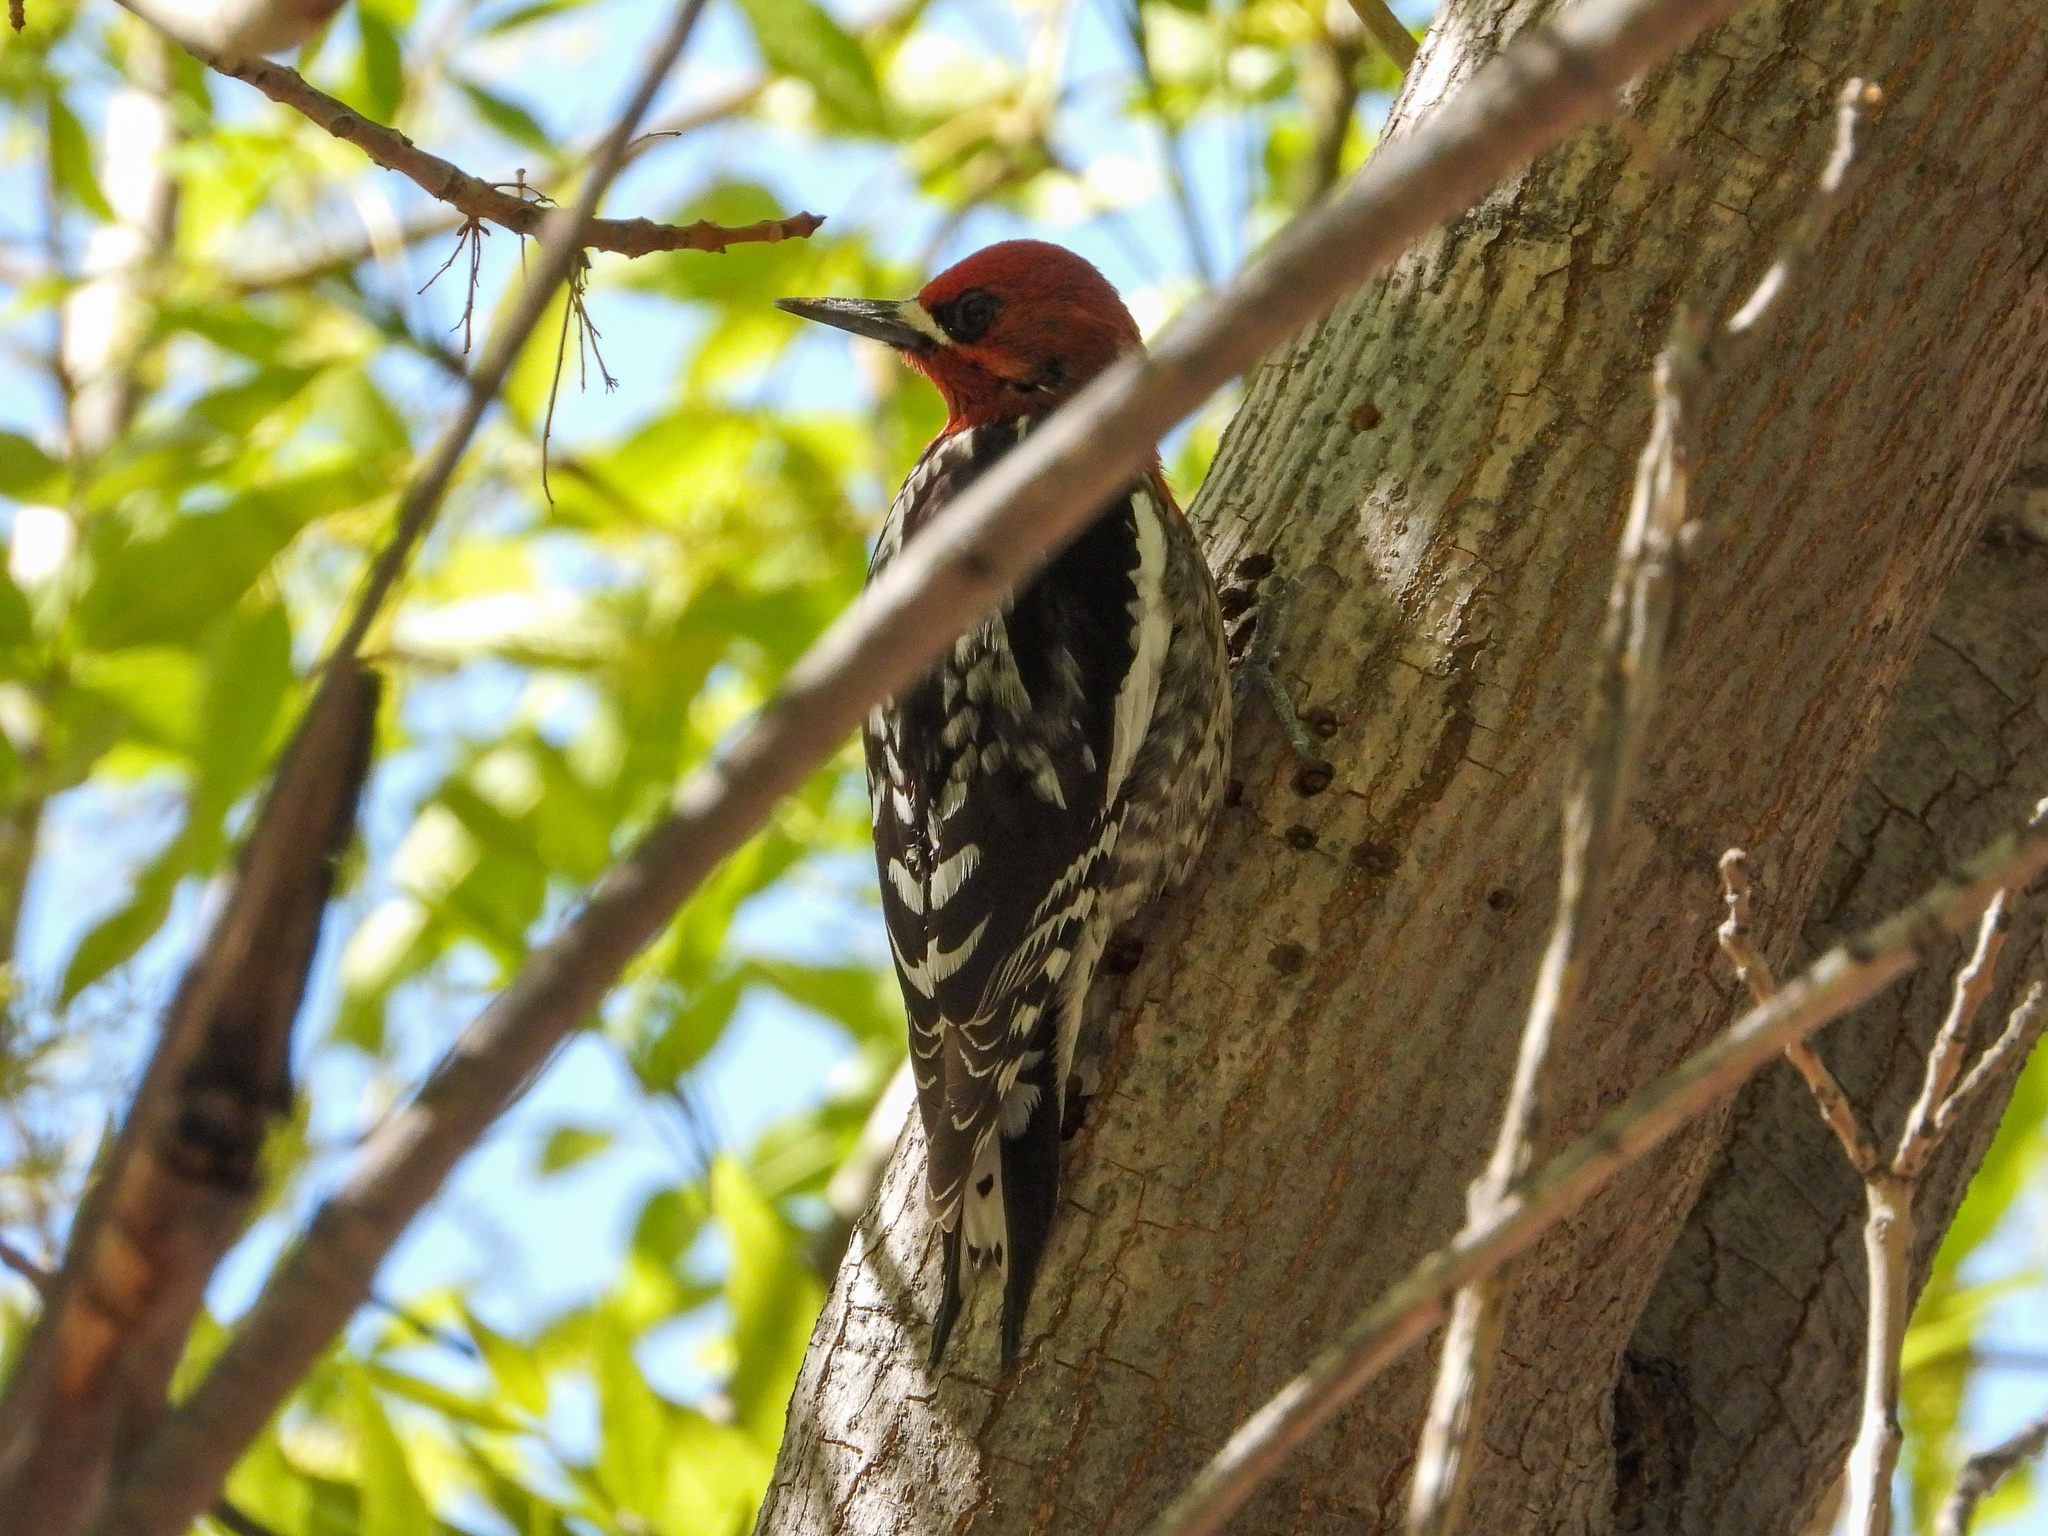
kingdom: Animalia
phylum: Chordata
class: Aves
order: Piciformes
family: Picidae
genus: Sphyrapicus
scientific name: Sphyrapicus ruber
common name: Red-breasted sapsucker
